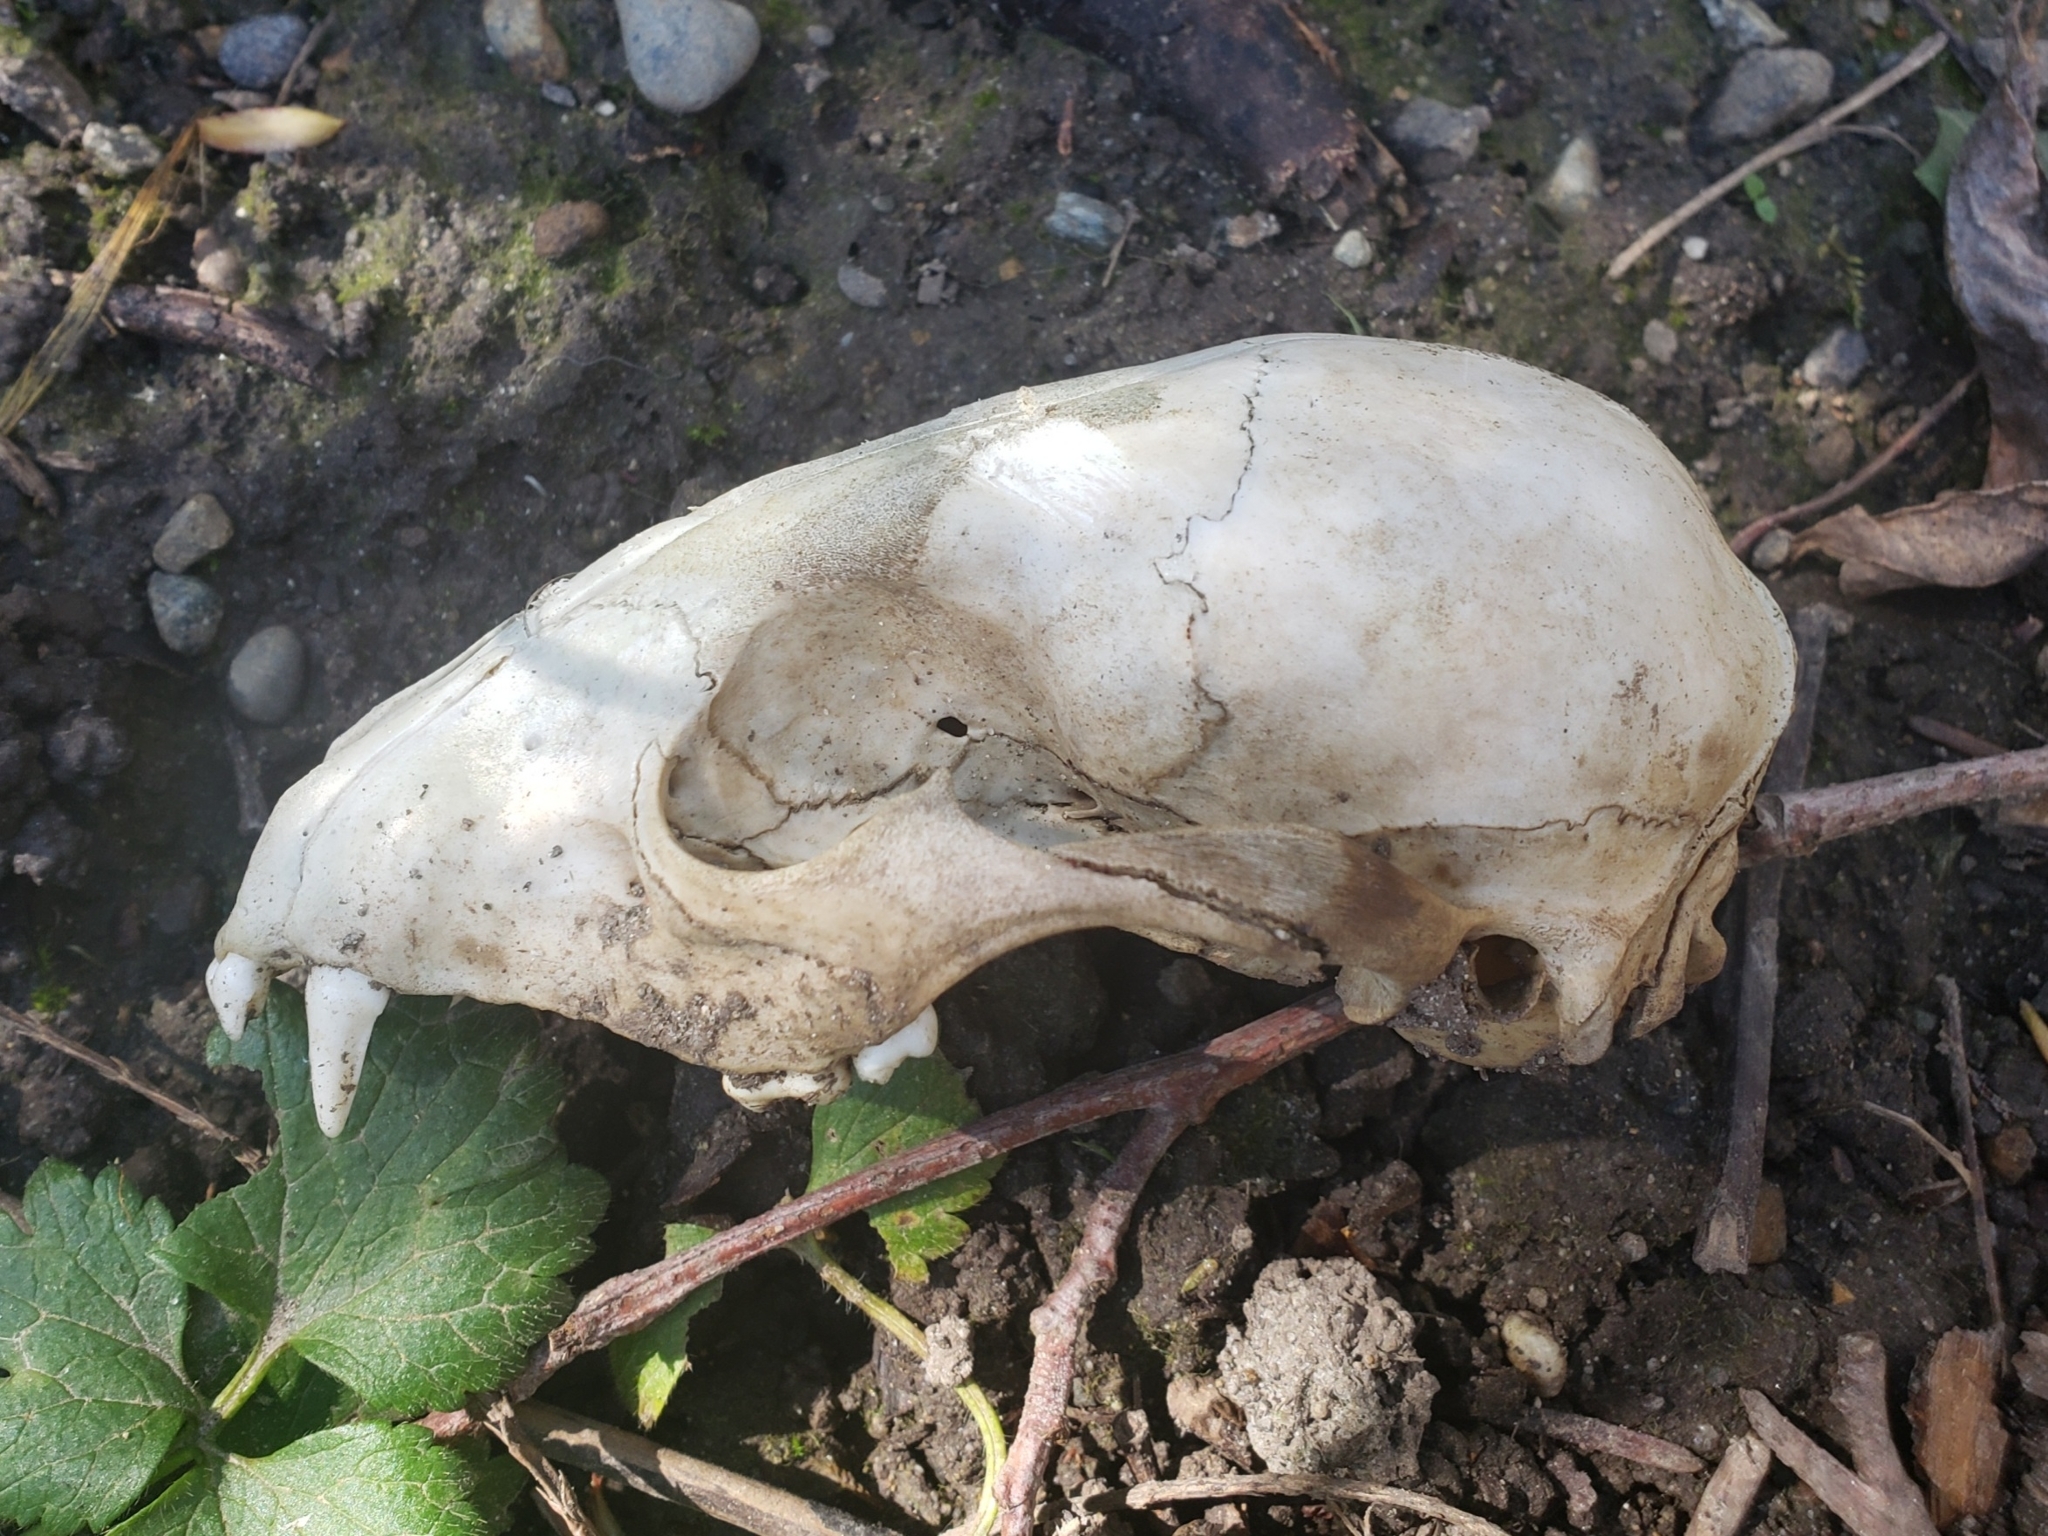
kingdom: Animalia
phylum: Chordata
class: Mammalia
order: Carnivora
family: Procyonidae
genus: Procyon
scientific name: Procyon lotor
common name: Raccoon
